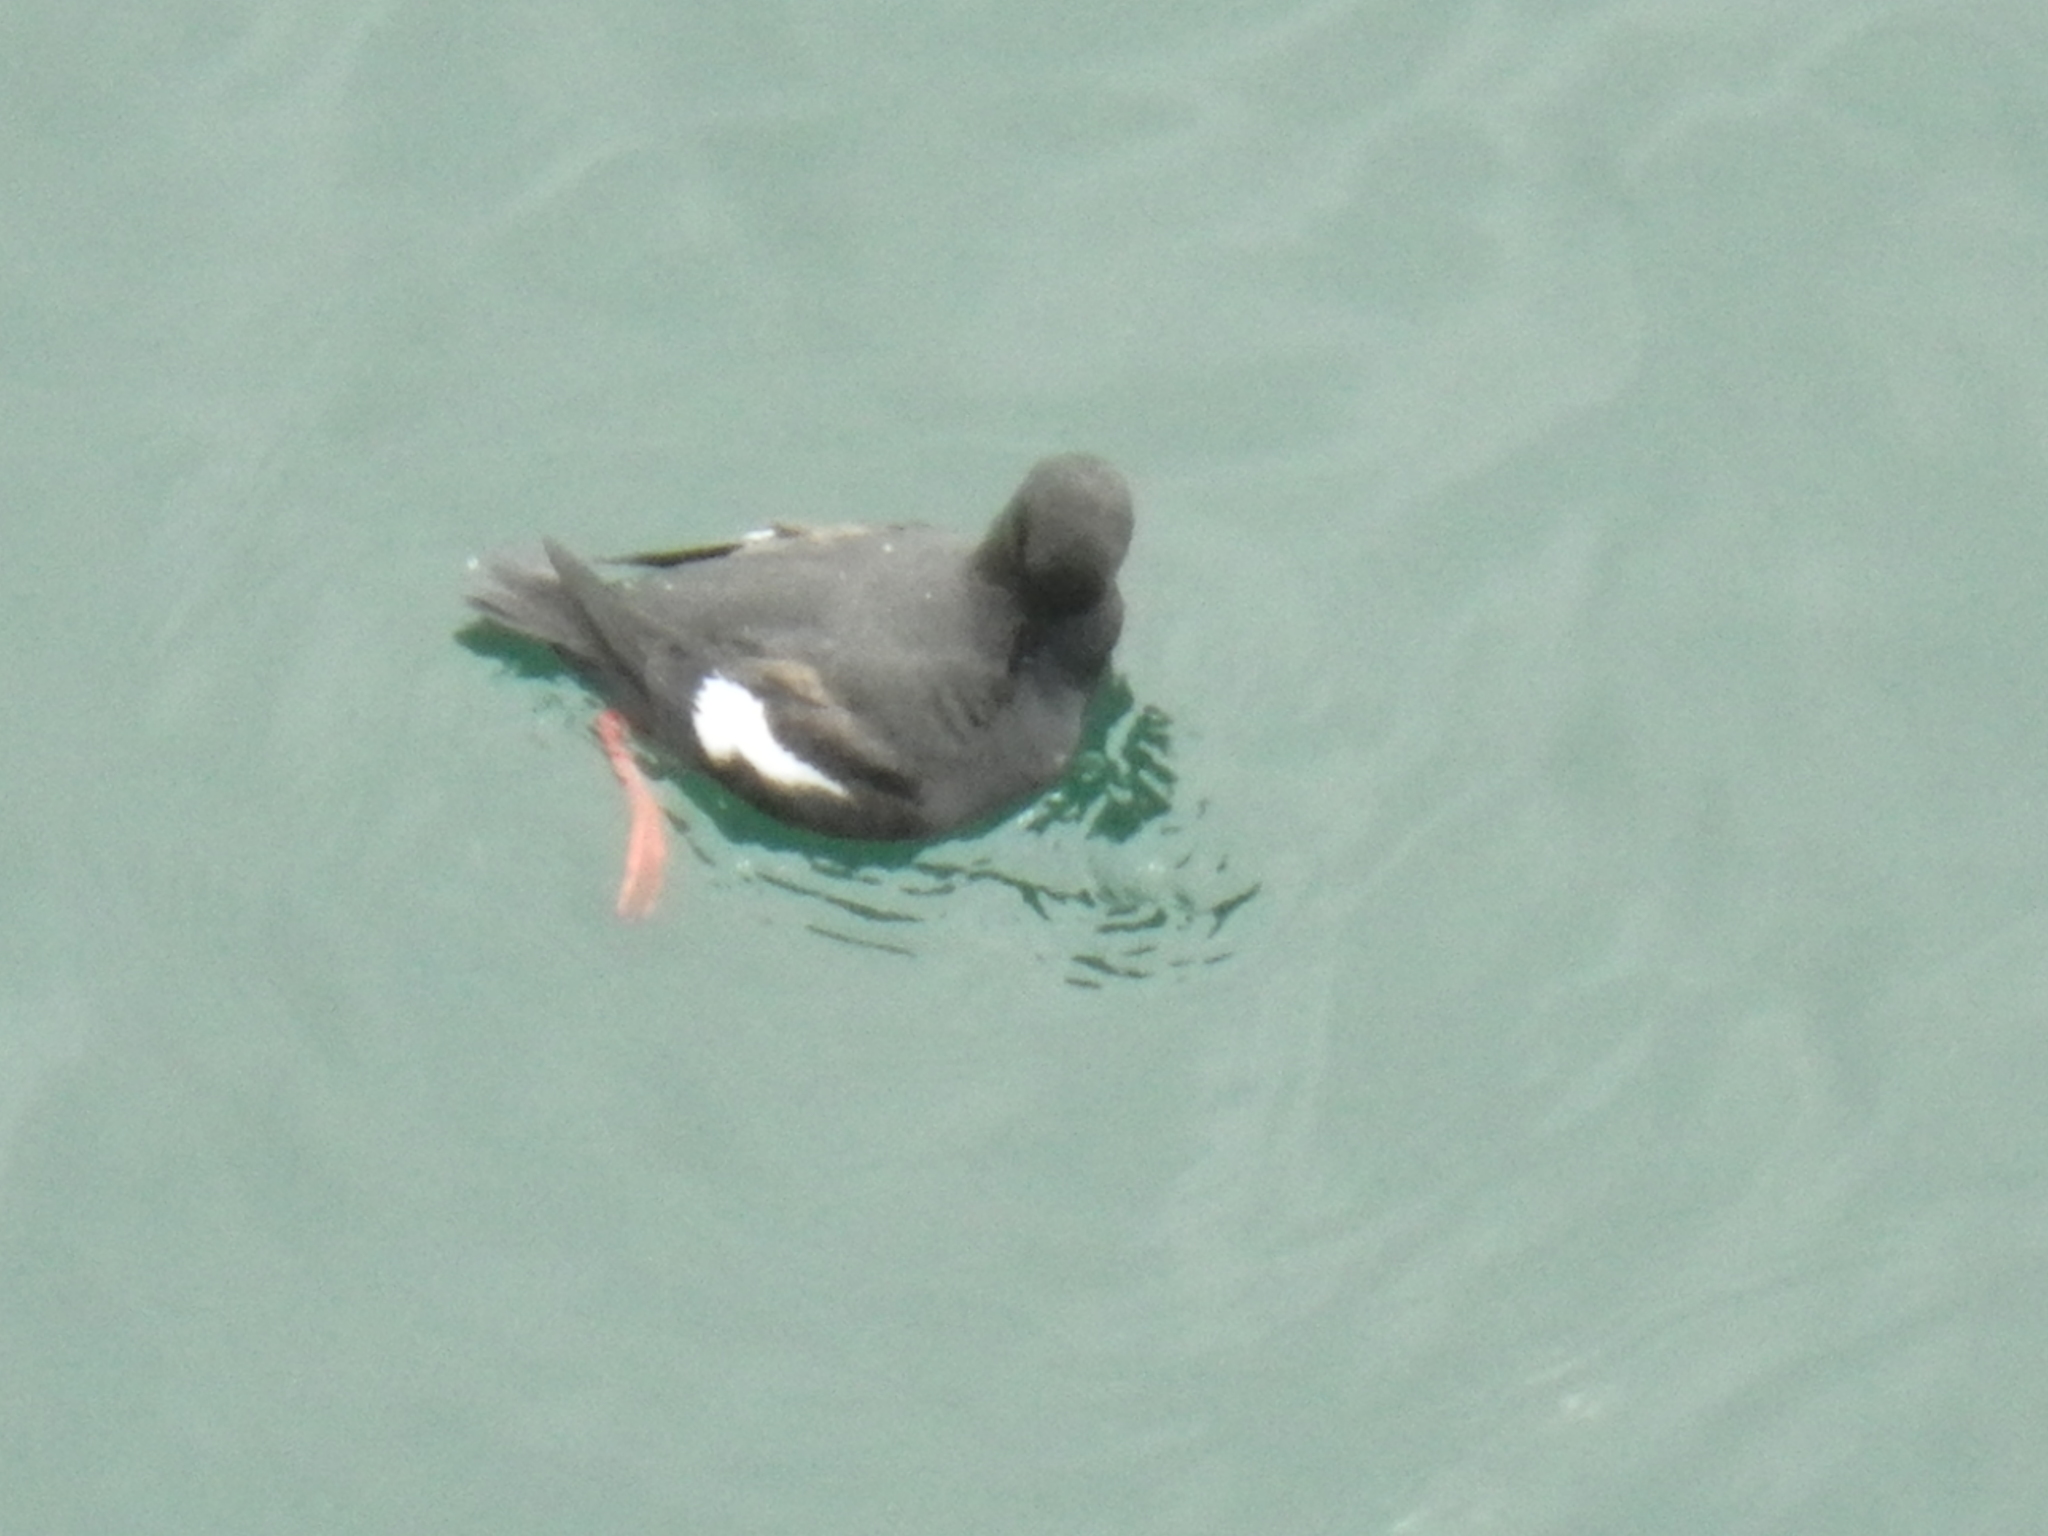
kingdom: Animalia
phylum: Chordata
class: Aves
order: Charadriiformes
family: Alcidae
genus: Cepphus
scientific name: Cepphus columba
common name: Pigeon guillemot
